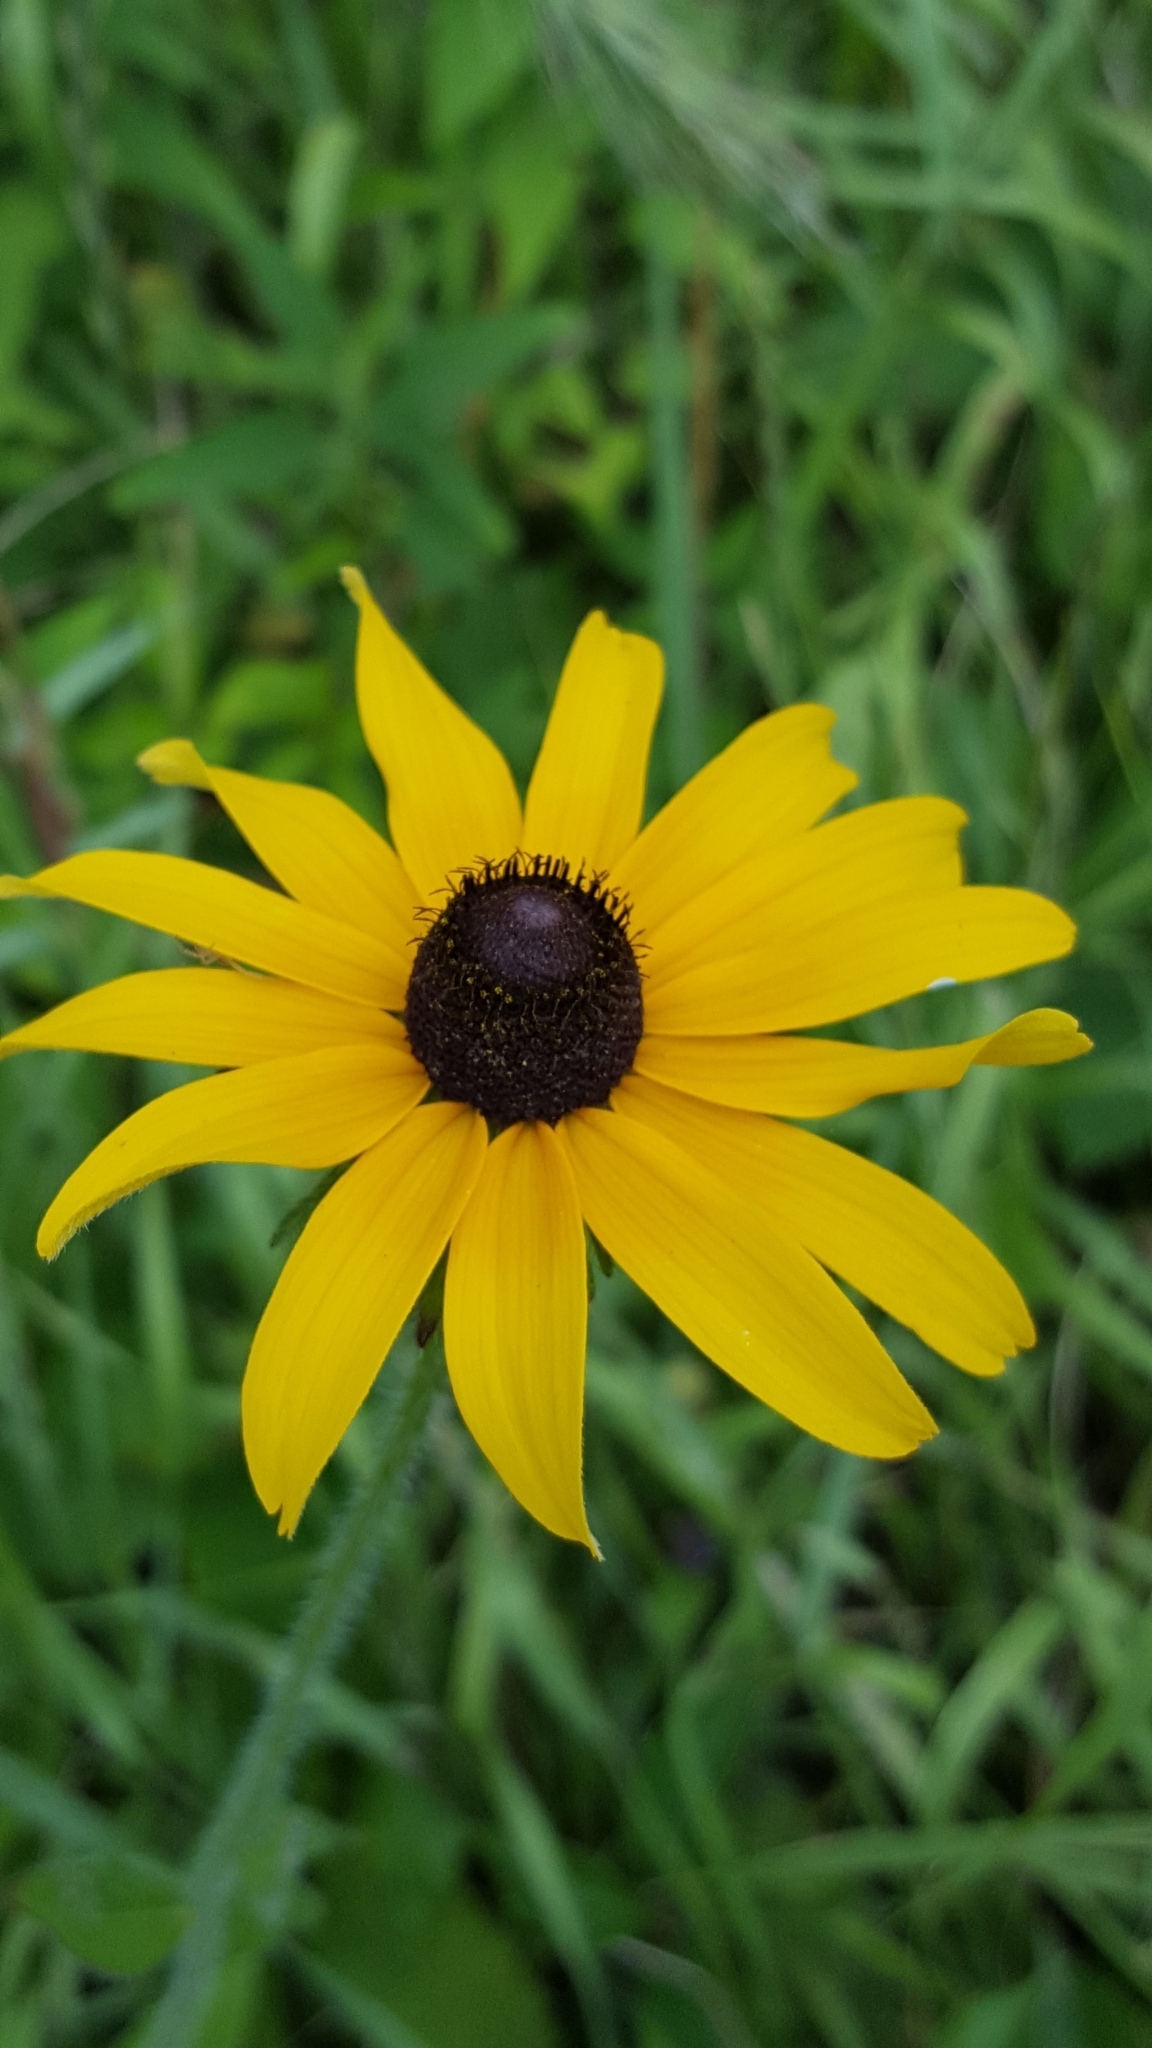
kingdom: Plantae
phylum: Tracheophyta
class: Magnoliopsida
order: Asterales
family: Asteraceae
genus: Rudbeckia
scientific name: Rudbeckia hirta
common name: Black-eyed-susan
